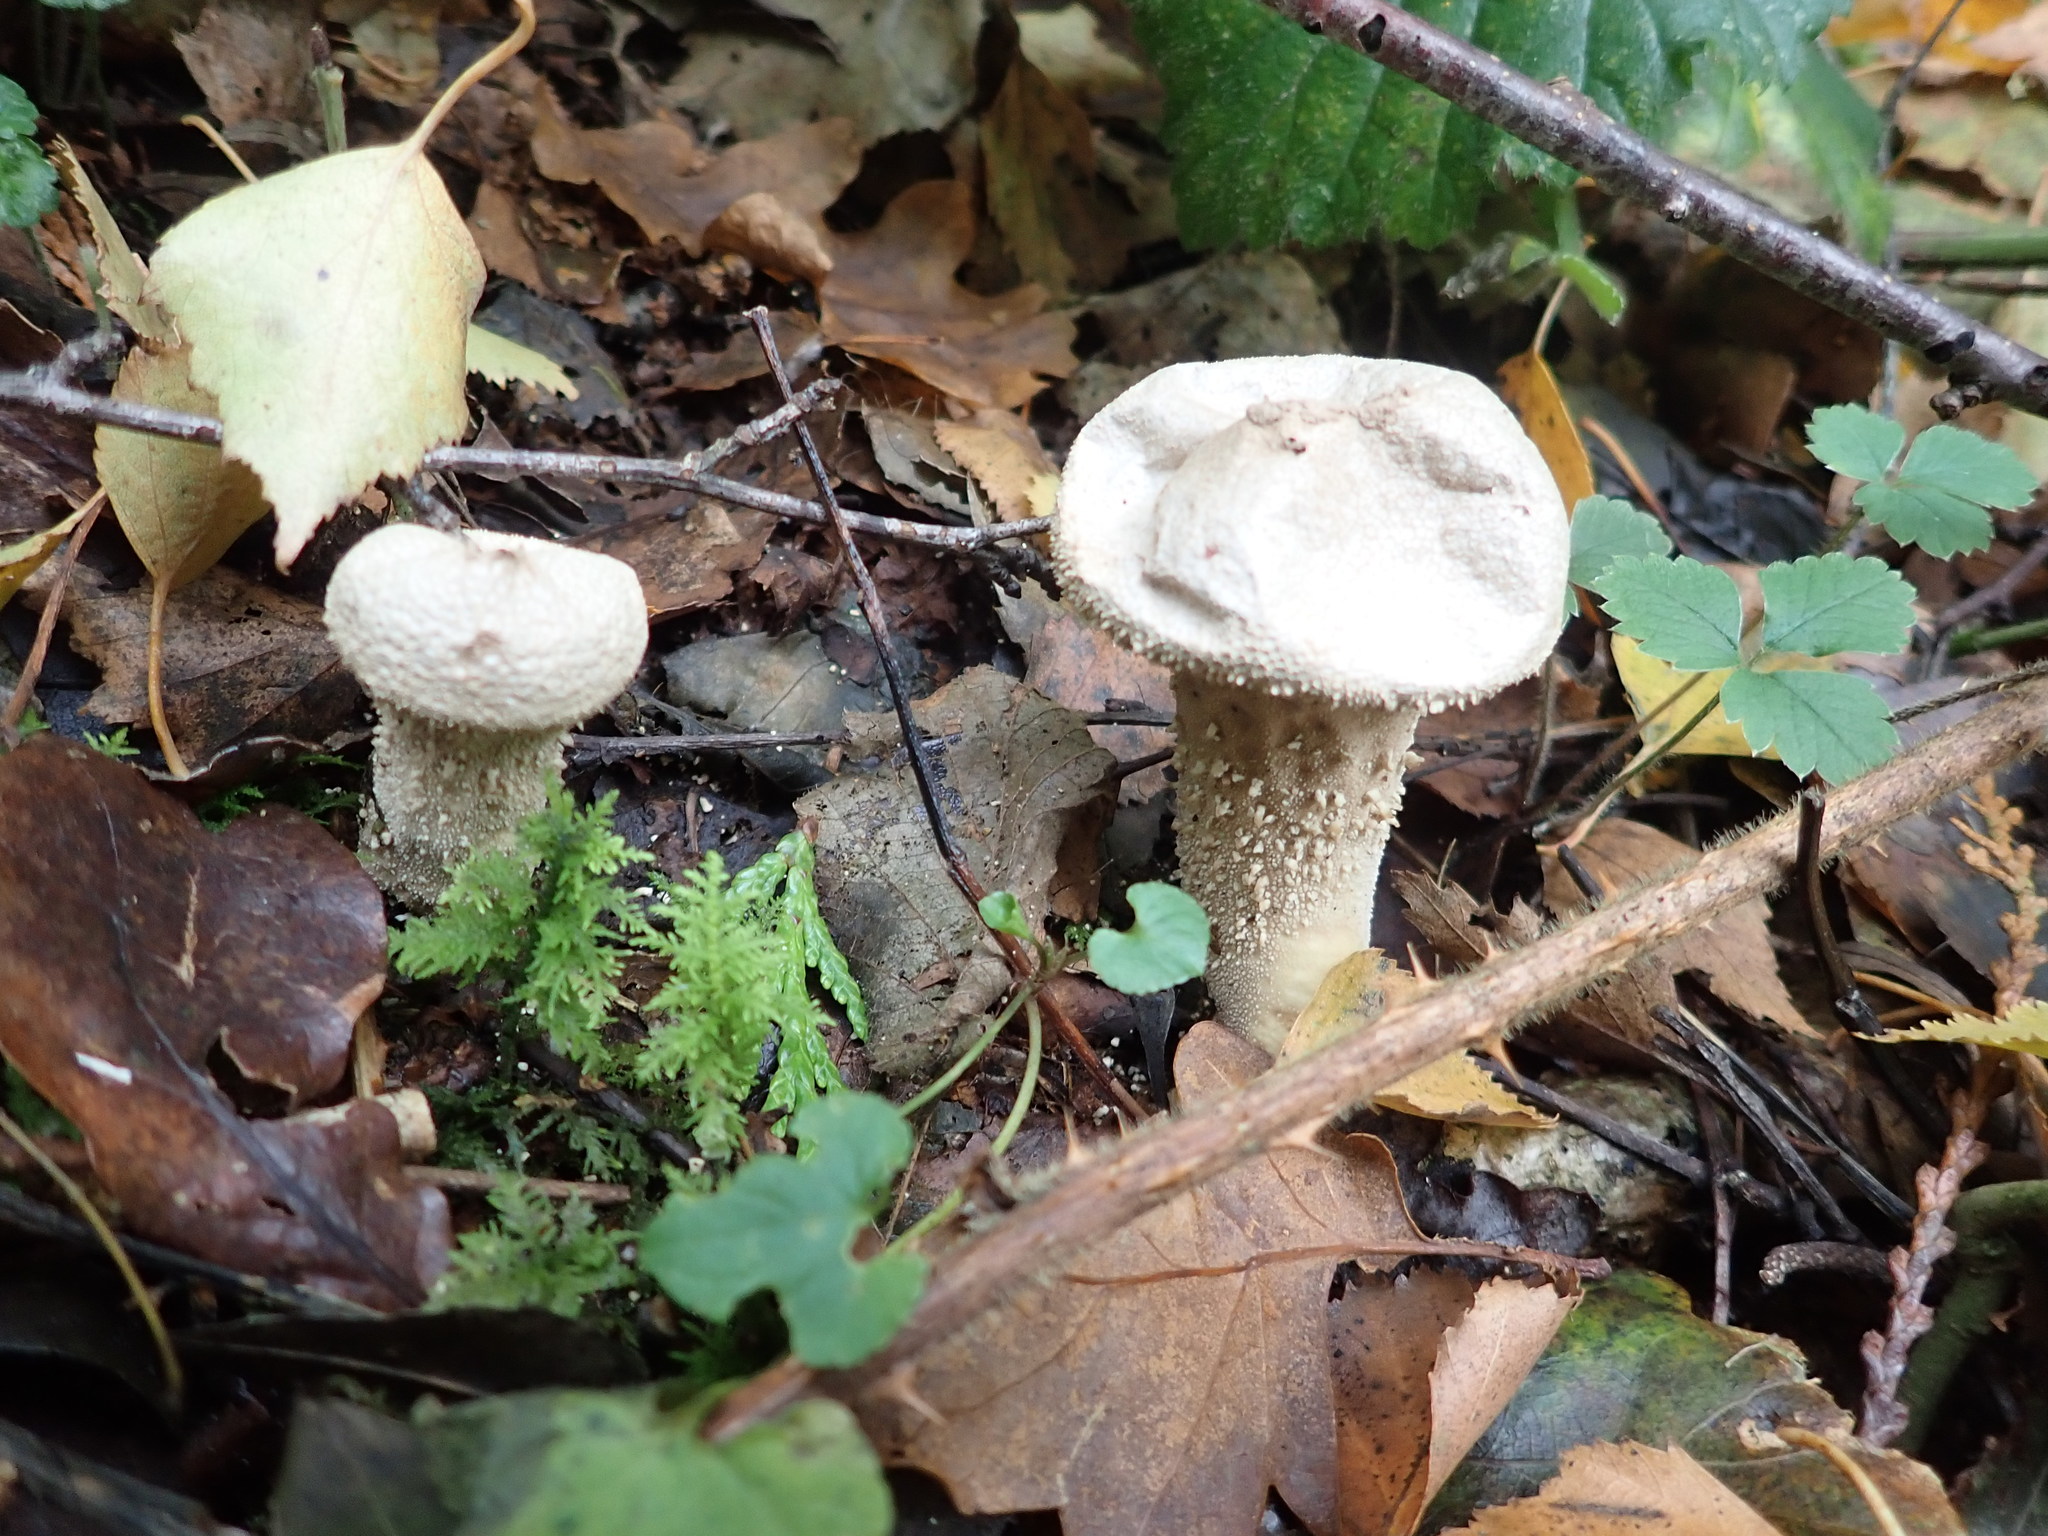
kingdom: Fungi
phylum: Basidiomycota
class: Agaricomycetes
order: Agaricales
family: Lycoperdaceae
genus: Lycoperdon
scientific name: Lycoperdon perlatum
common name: Common puffball
